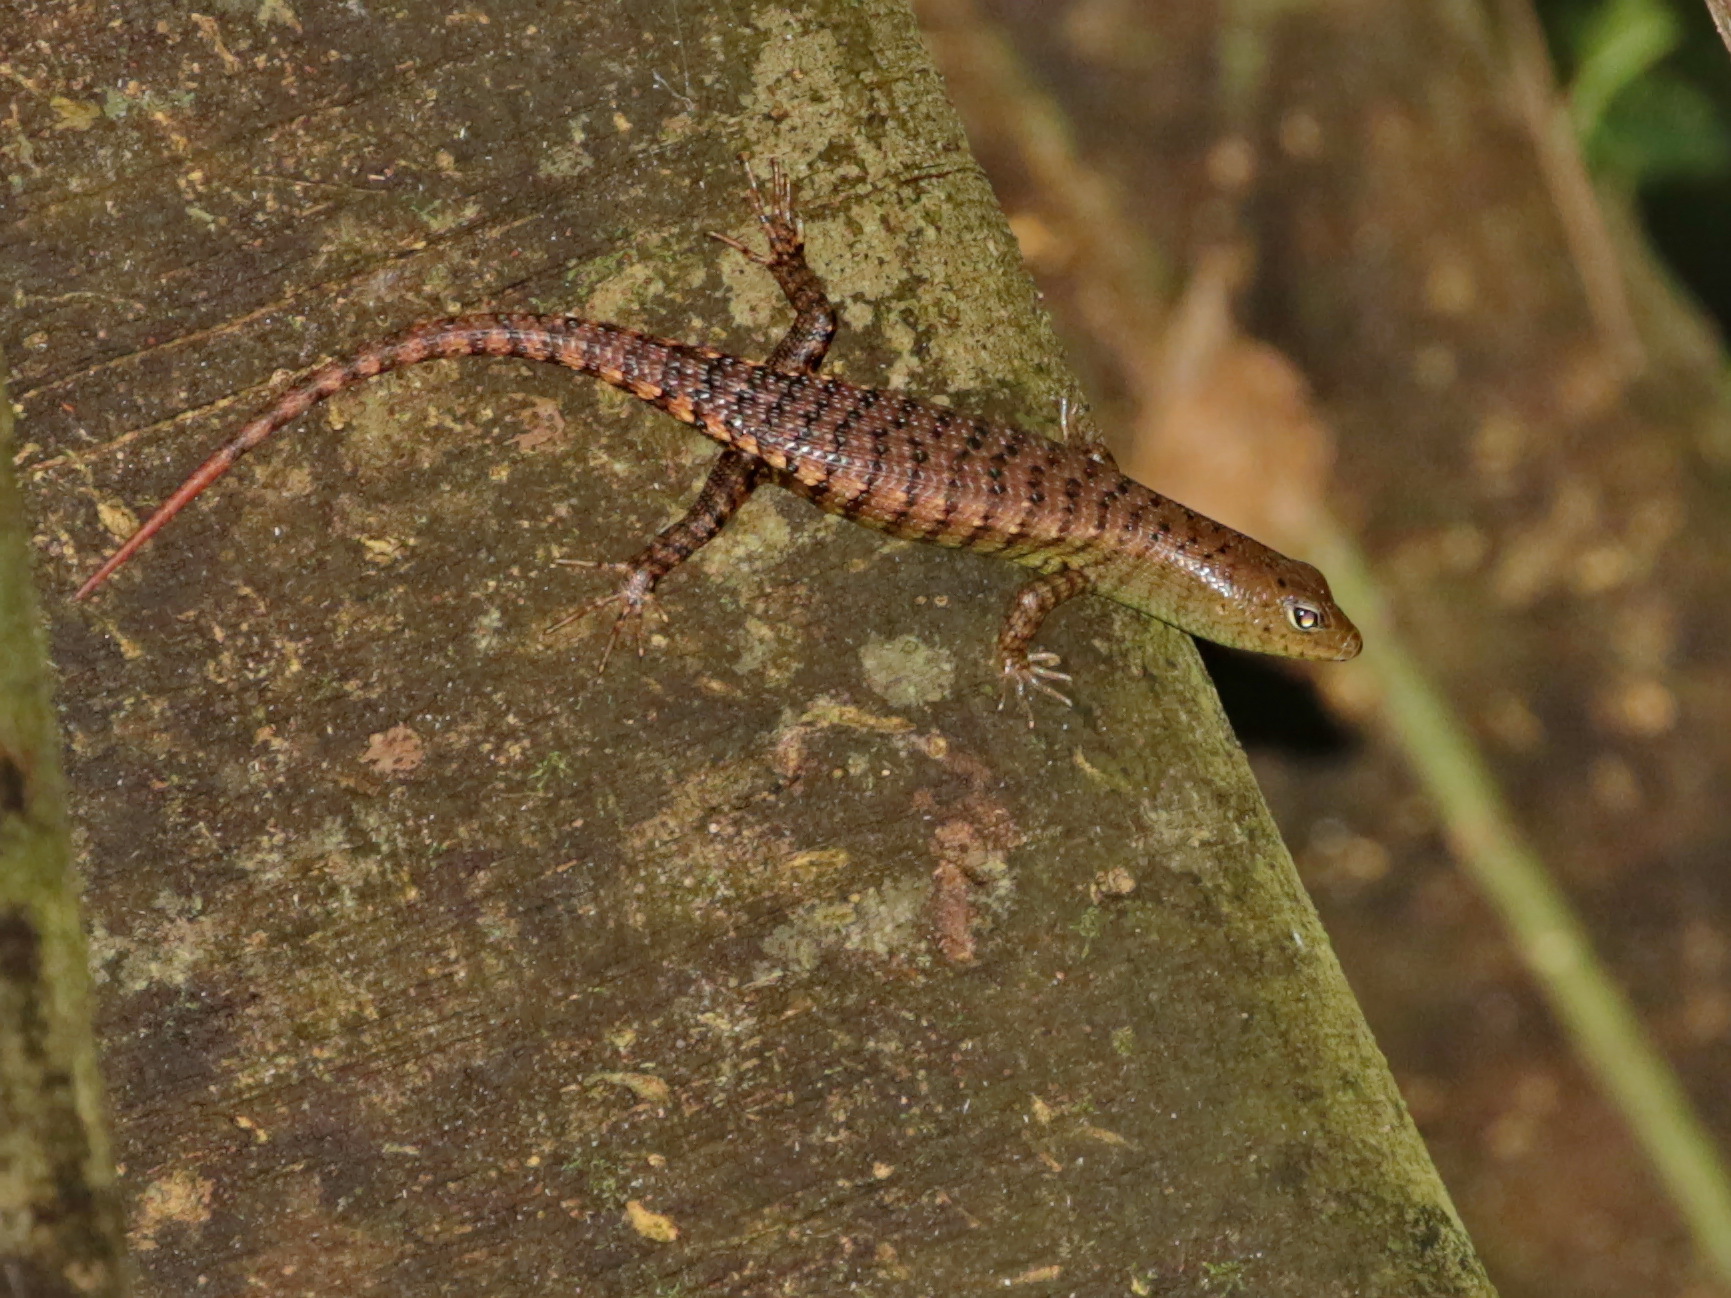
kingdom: Animalia
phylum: Chordata
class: Squamata
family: Scincidae
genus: Dasia
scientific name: Dasia grisea
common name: Big tree skink
